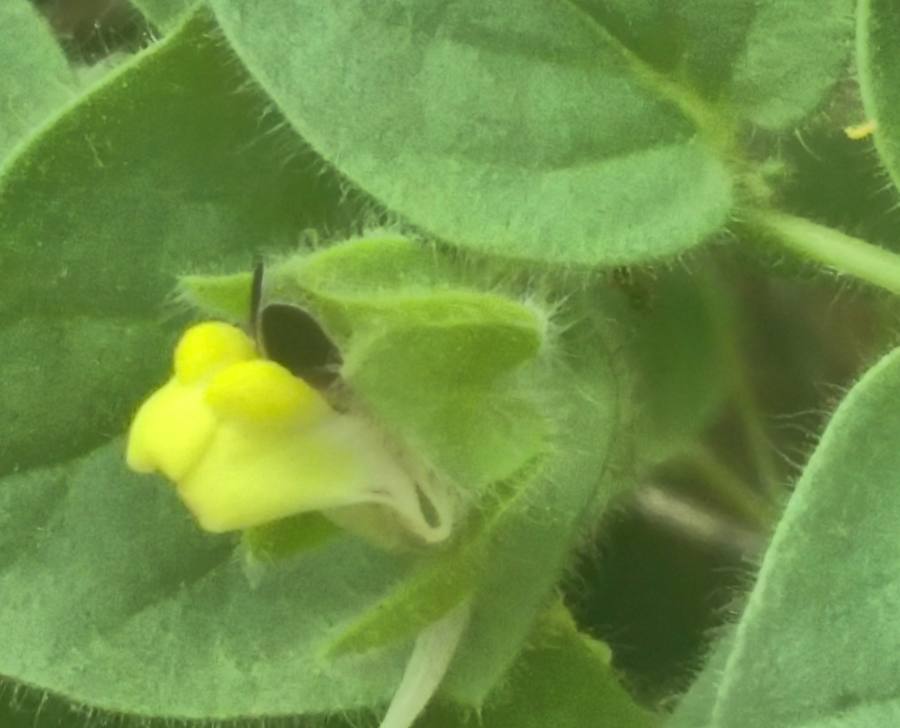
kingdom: Plantae
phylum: Tracheophyta
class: Magnoliopsida
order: Lamiales
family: Plantaginaceae
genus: Kickxia
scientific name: Kickxia spuria
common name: Round-leaved fluellen
